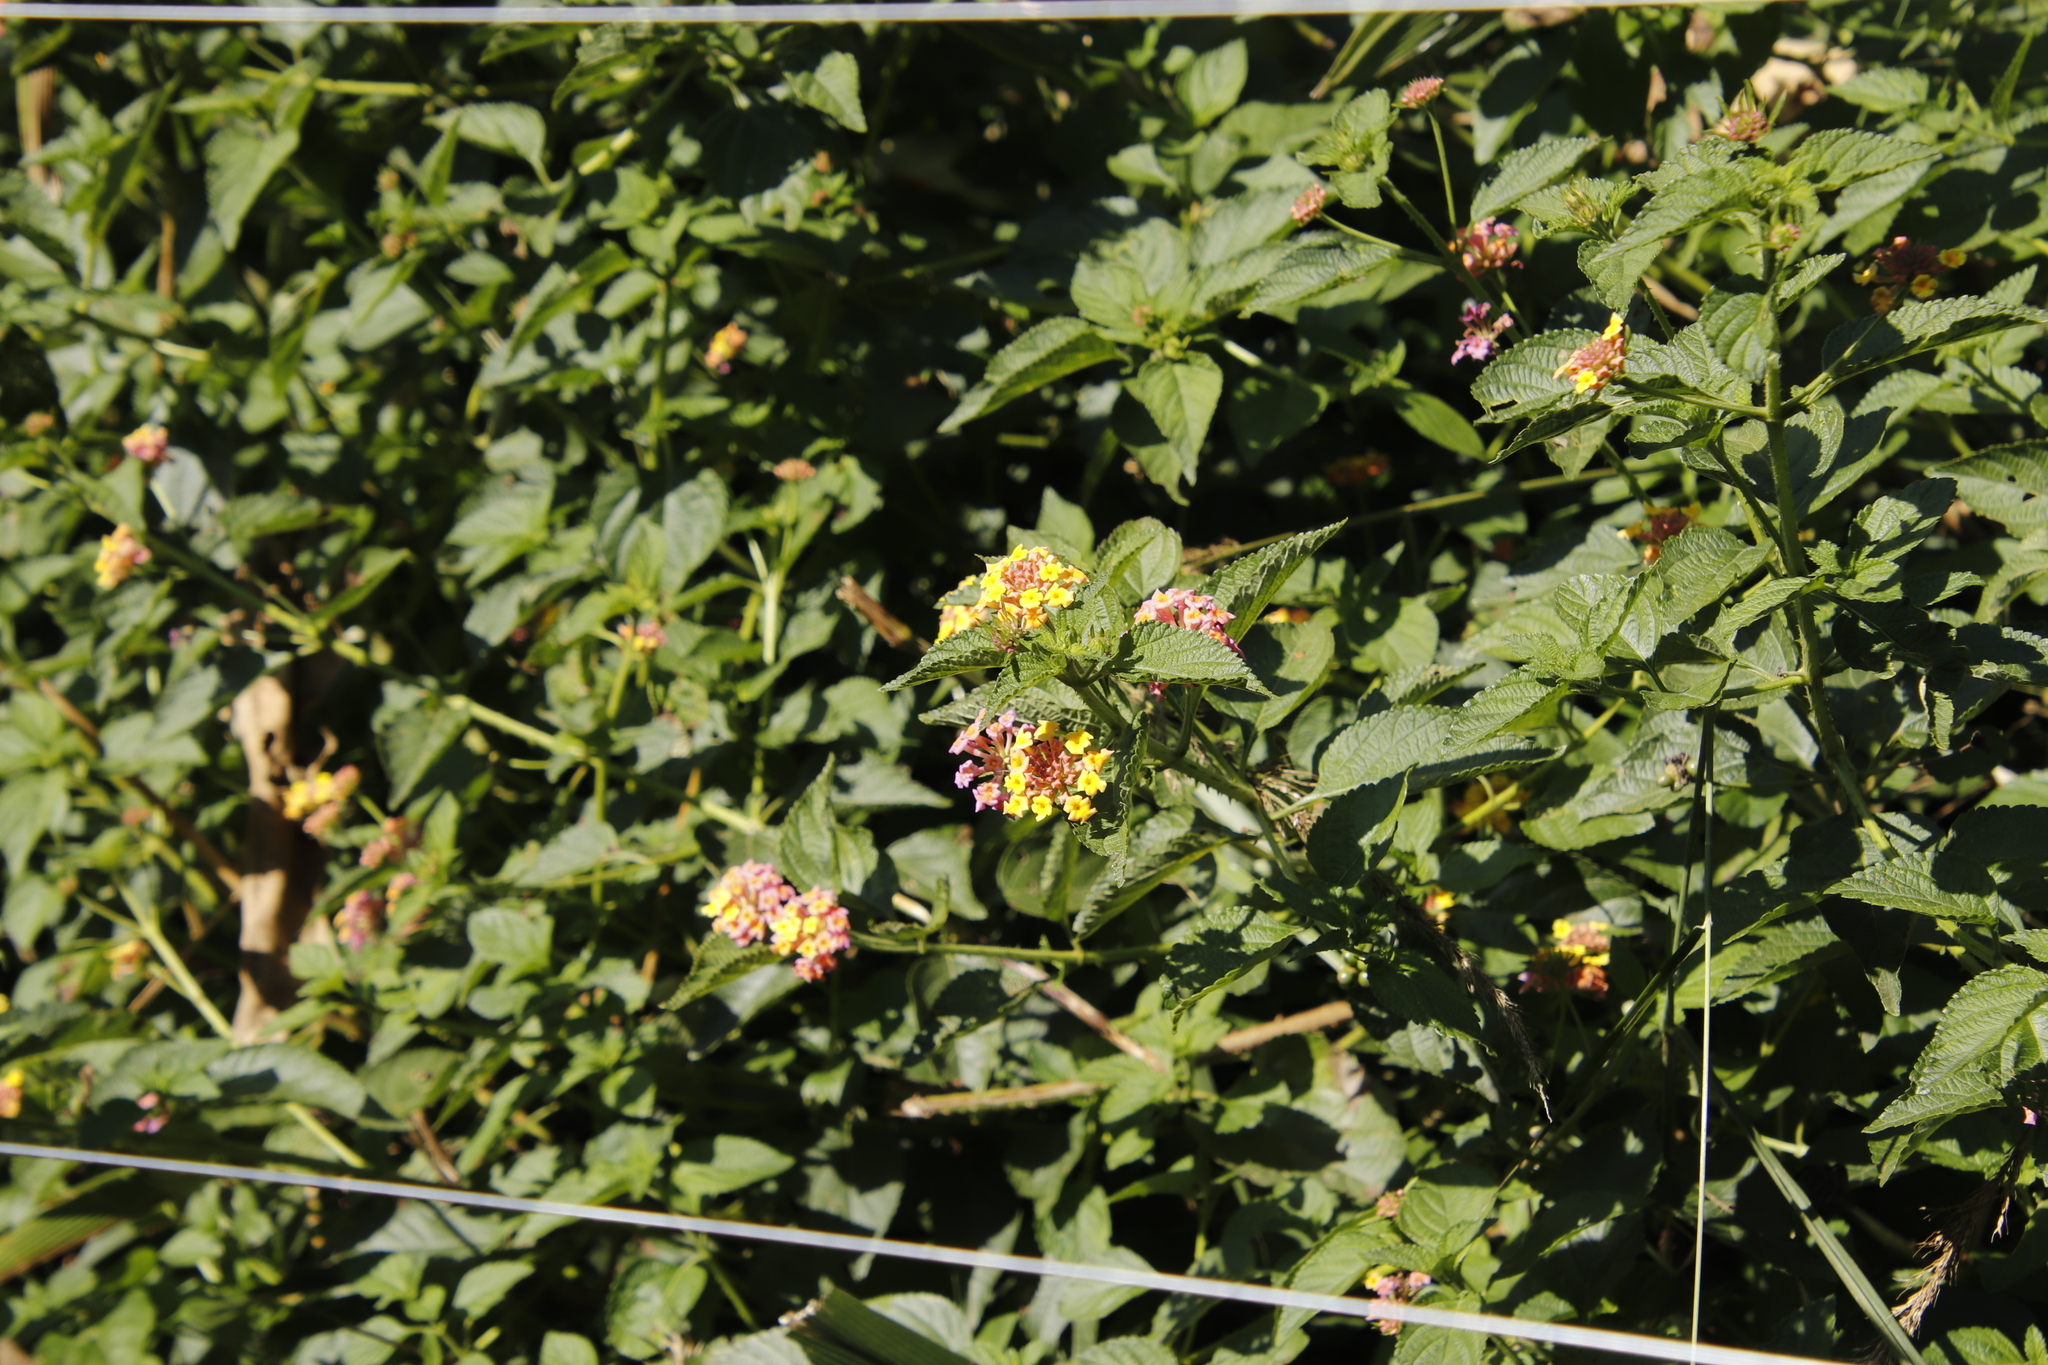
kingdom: Plantae
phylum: Tracheophyta
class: Magnoliopsida
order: Lamiales
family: Verbenaceae
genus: Lantana
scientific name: Lantana camara
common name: Lantana
